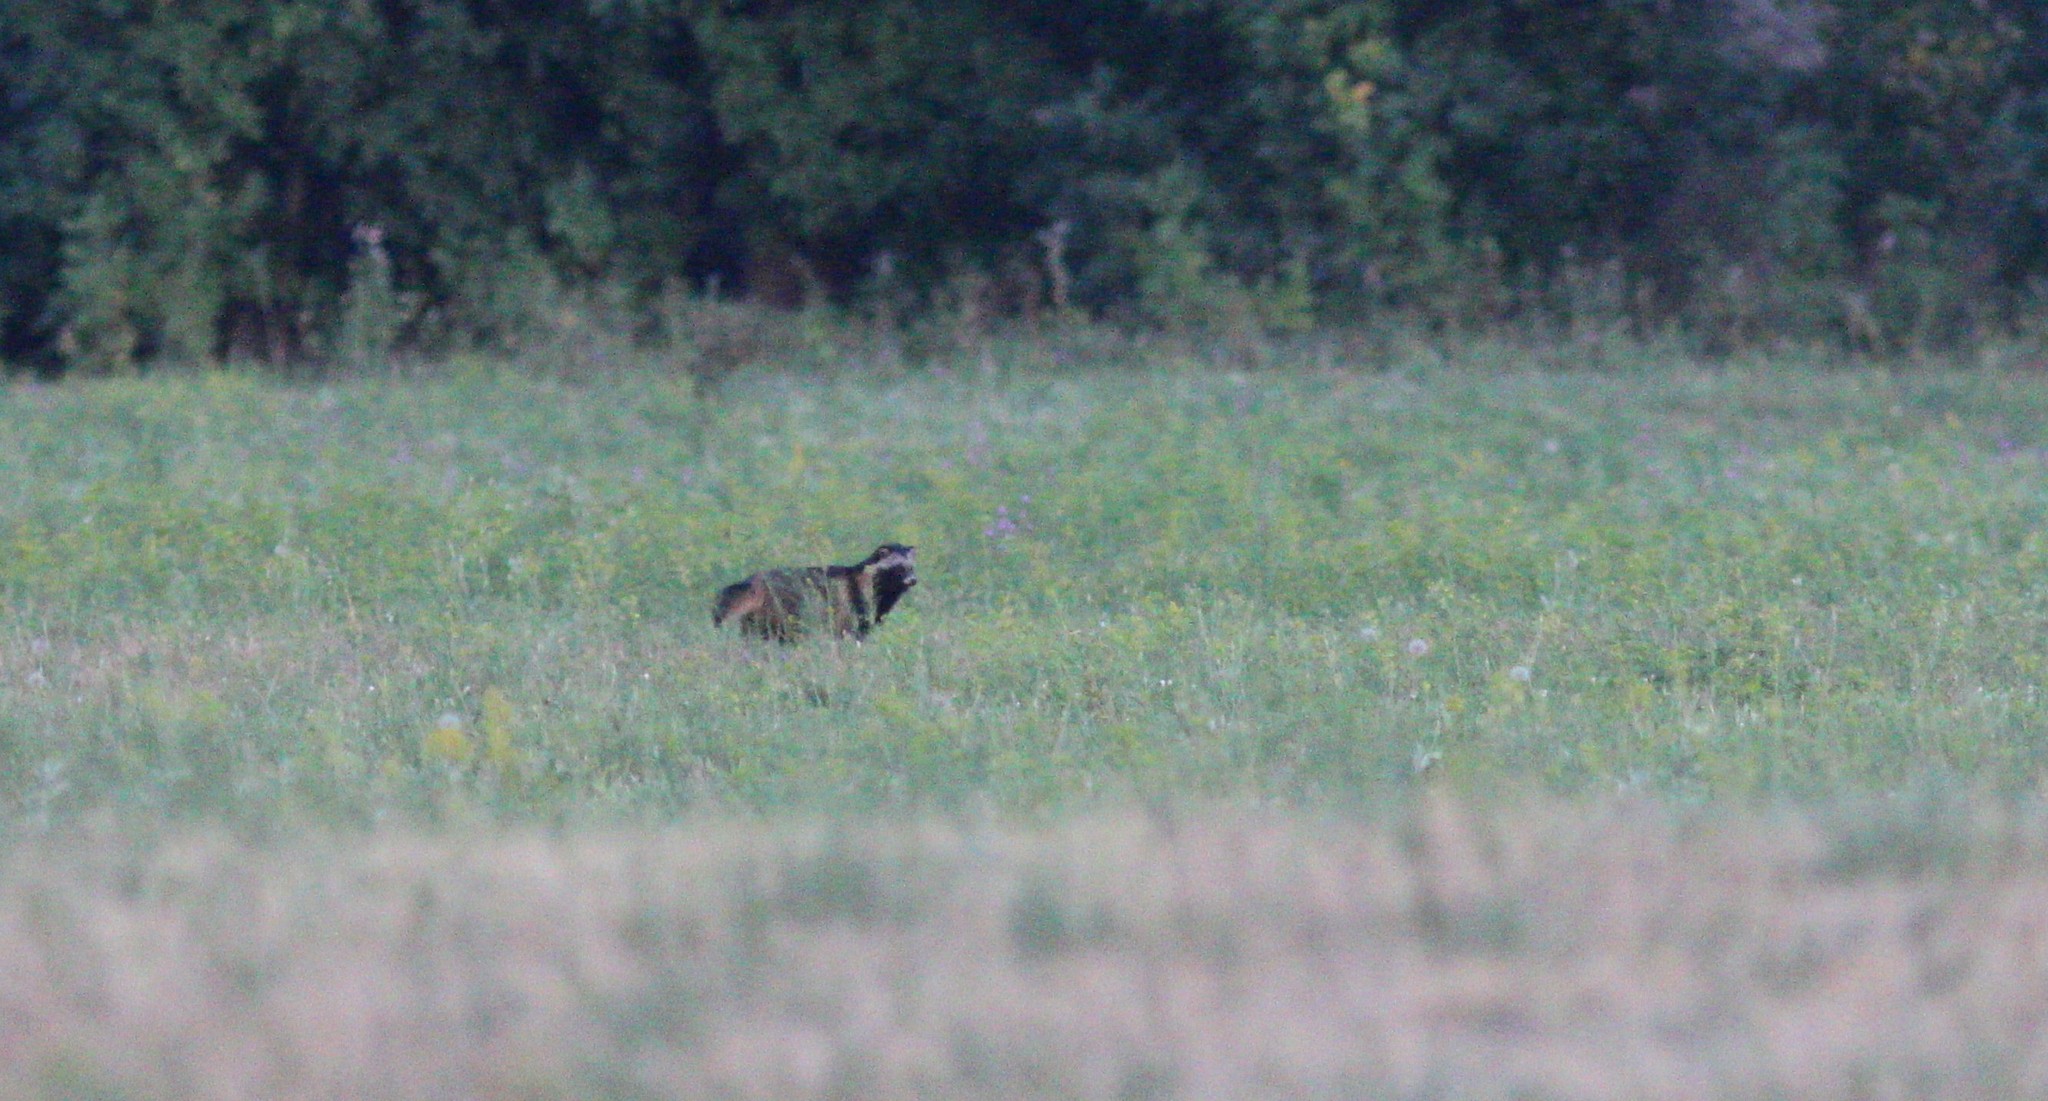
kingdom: Animalia
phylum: Chordata
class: Mammalia
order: Carnivora
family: Canidae
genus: Nyctereutes
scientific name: Nyctereutes procyonoides
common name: Raccoon dog
